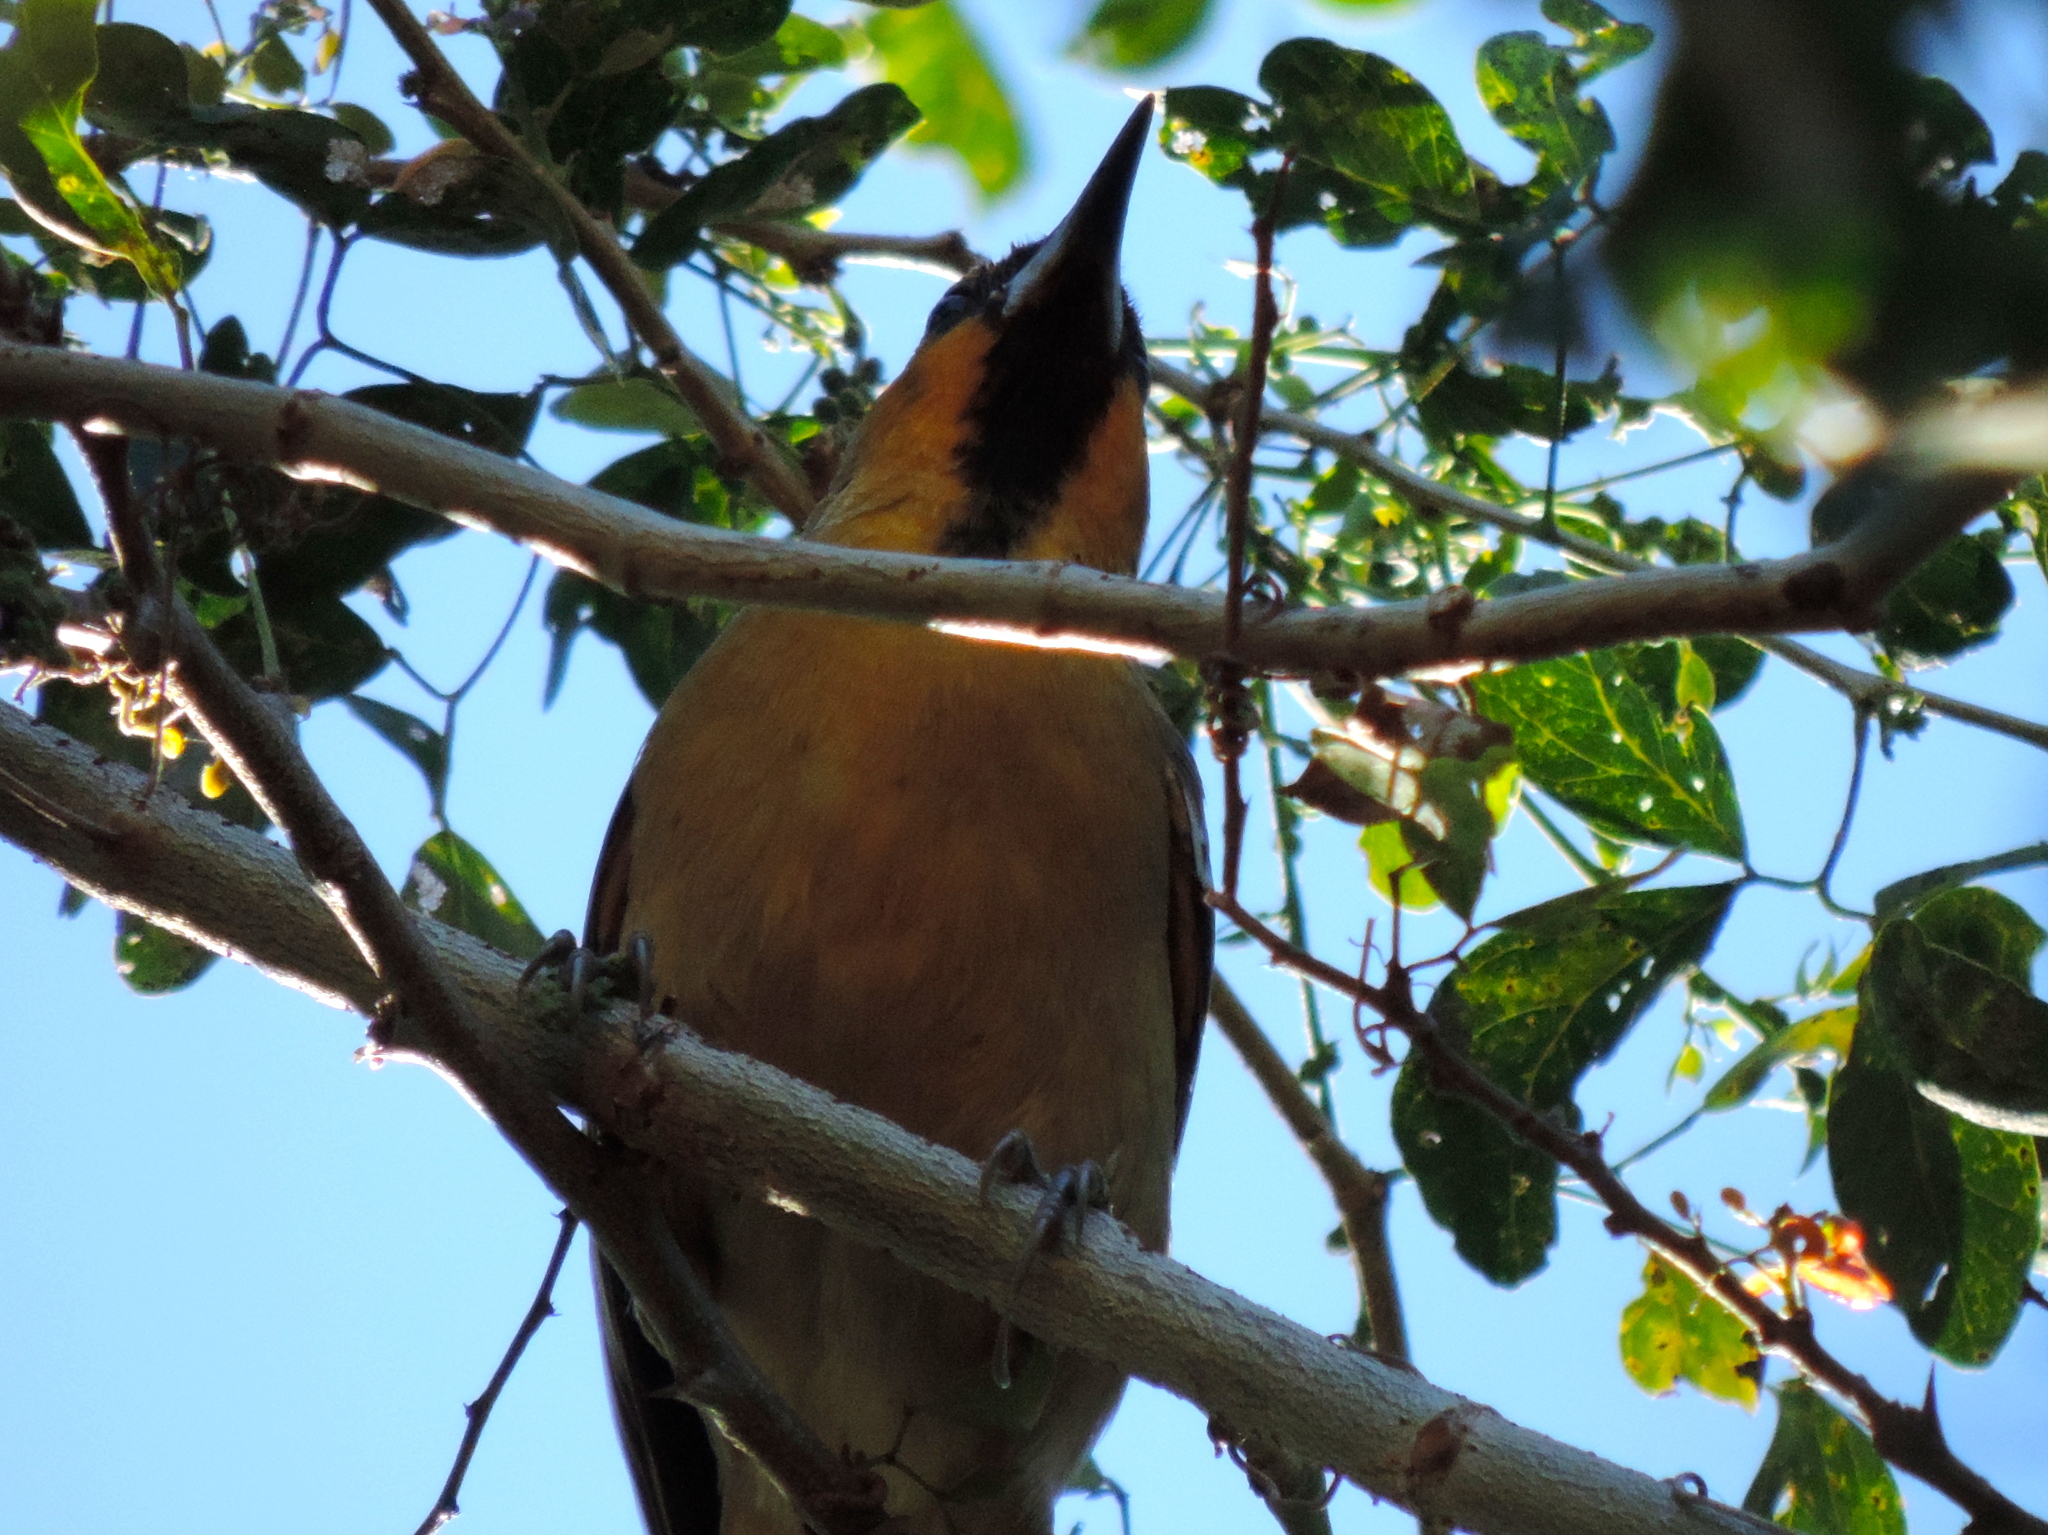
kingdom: Animalia
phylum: Chordata
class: Aves
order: Passeriformes
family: Icteridae
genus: Icterus
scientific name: Icterus
